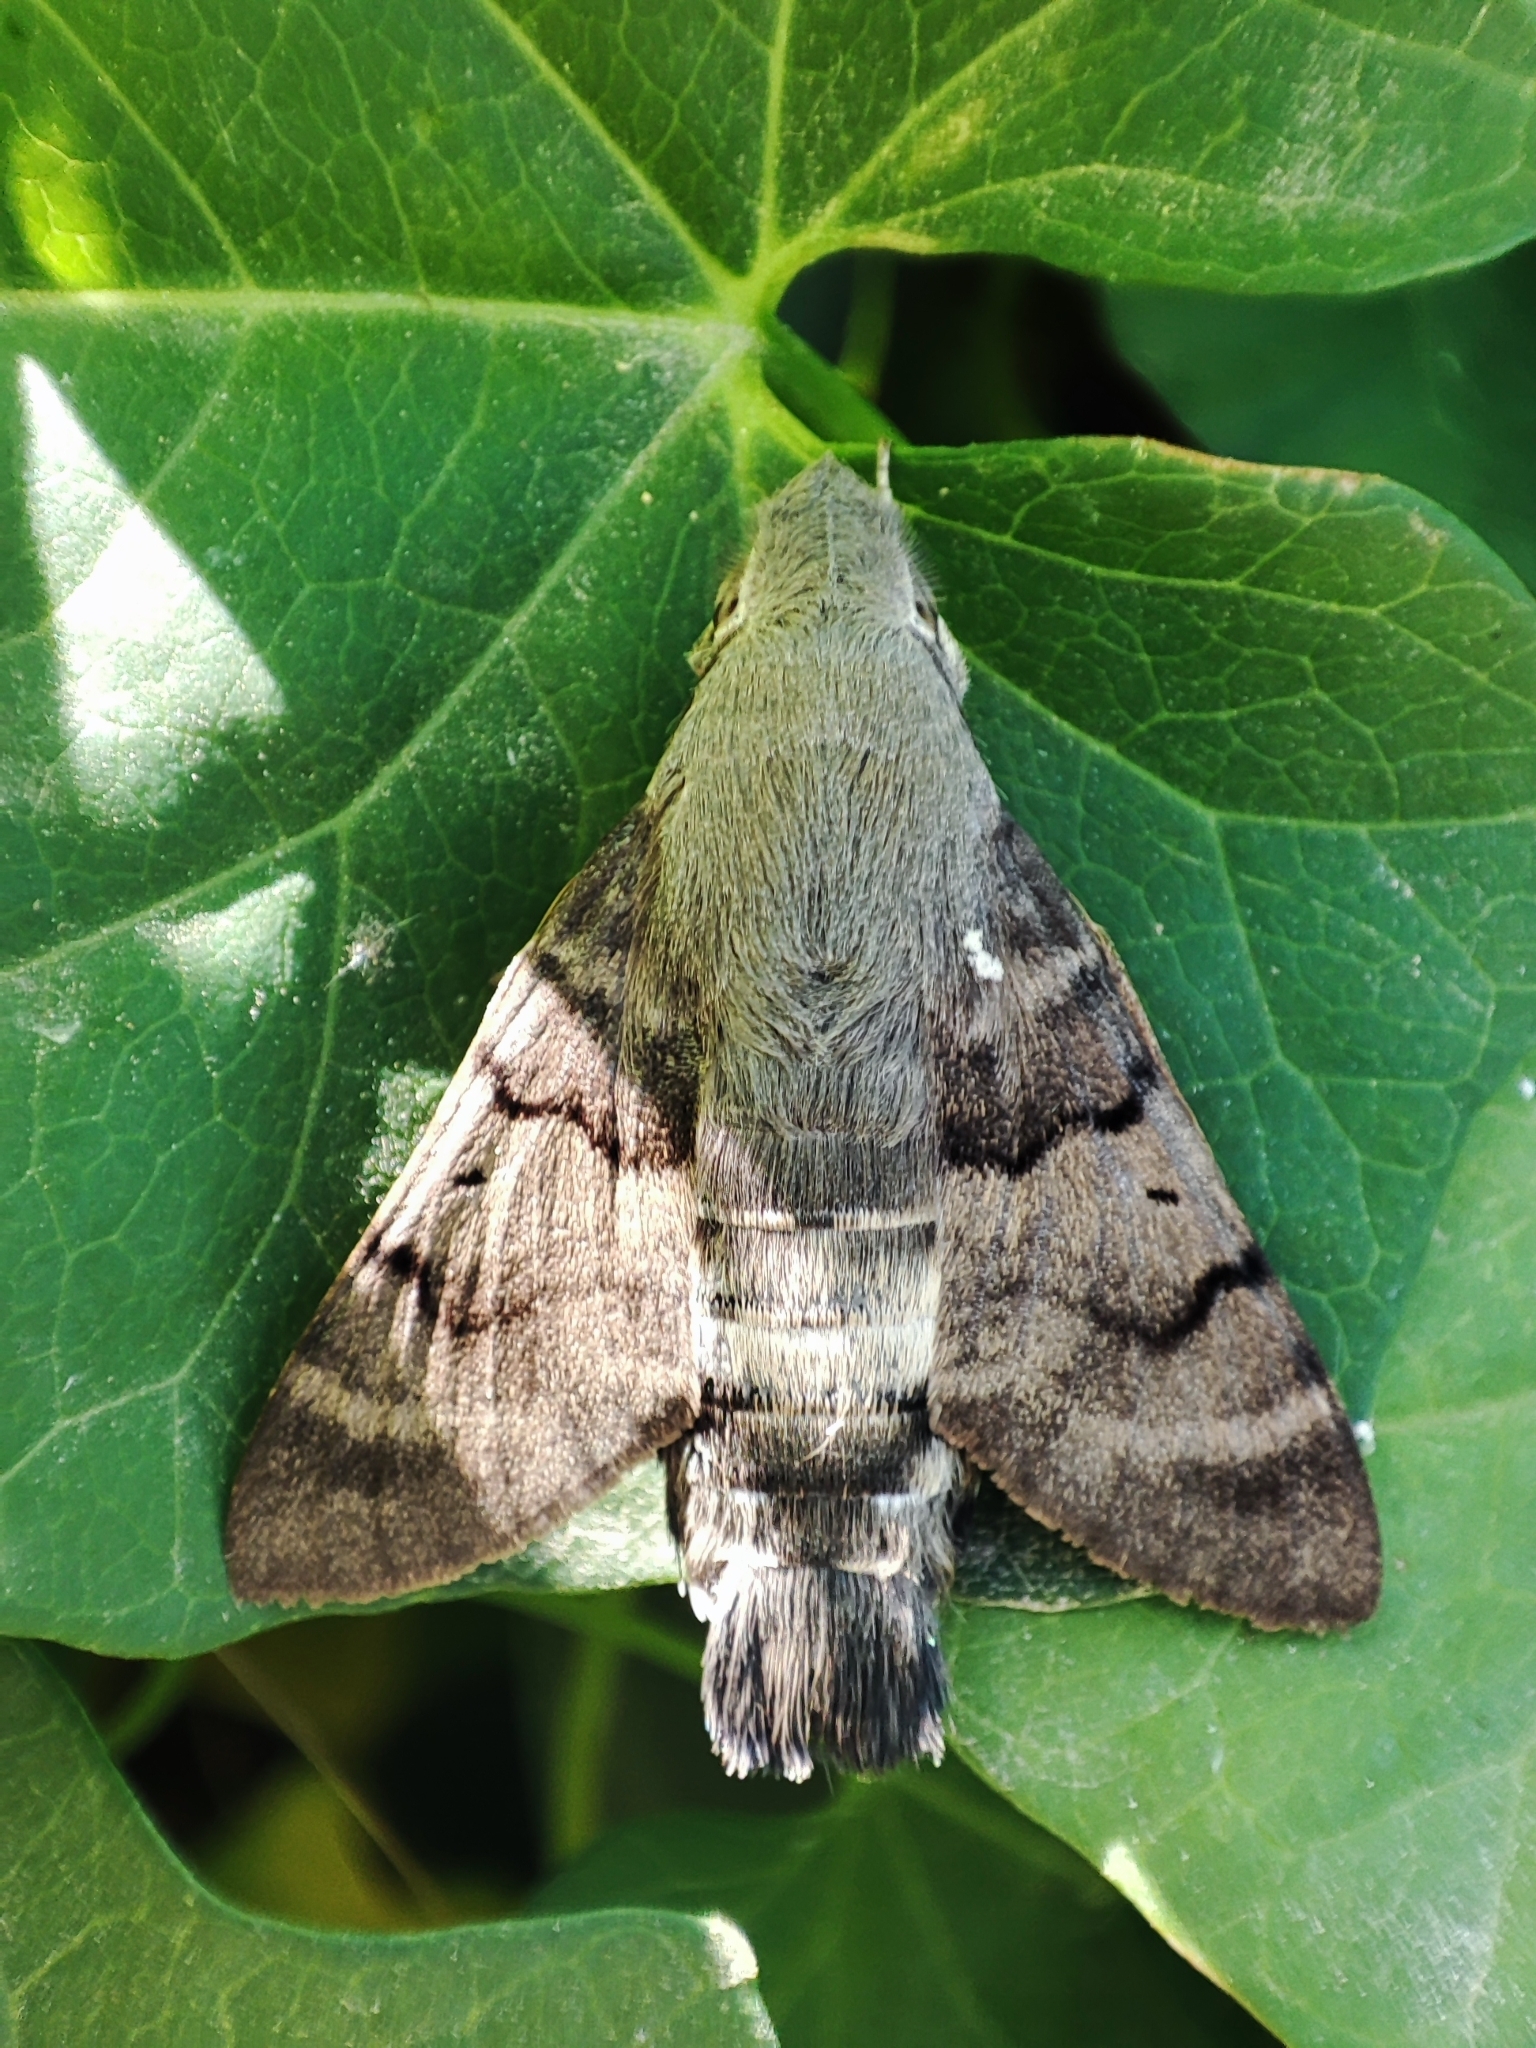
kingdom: Animalia
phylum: Arthropoda
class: Insecta
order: Lepidoptera
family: Sphingidae
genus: Macroglossum
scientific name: Macroglossum stellatarum
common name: Humming-bird hawk-moth
